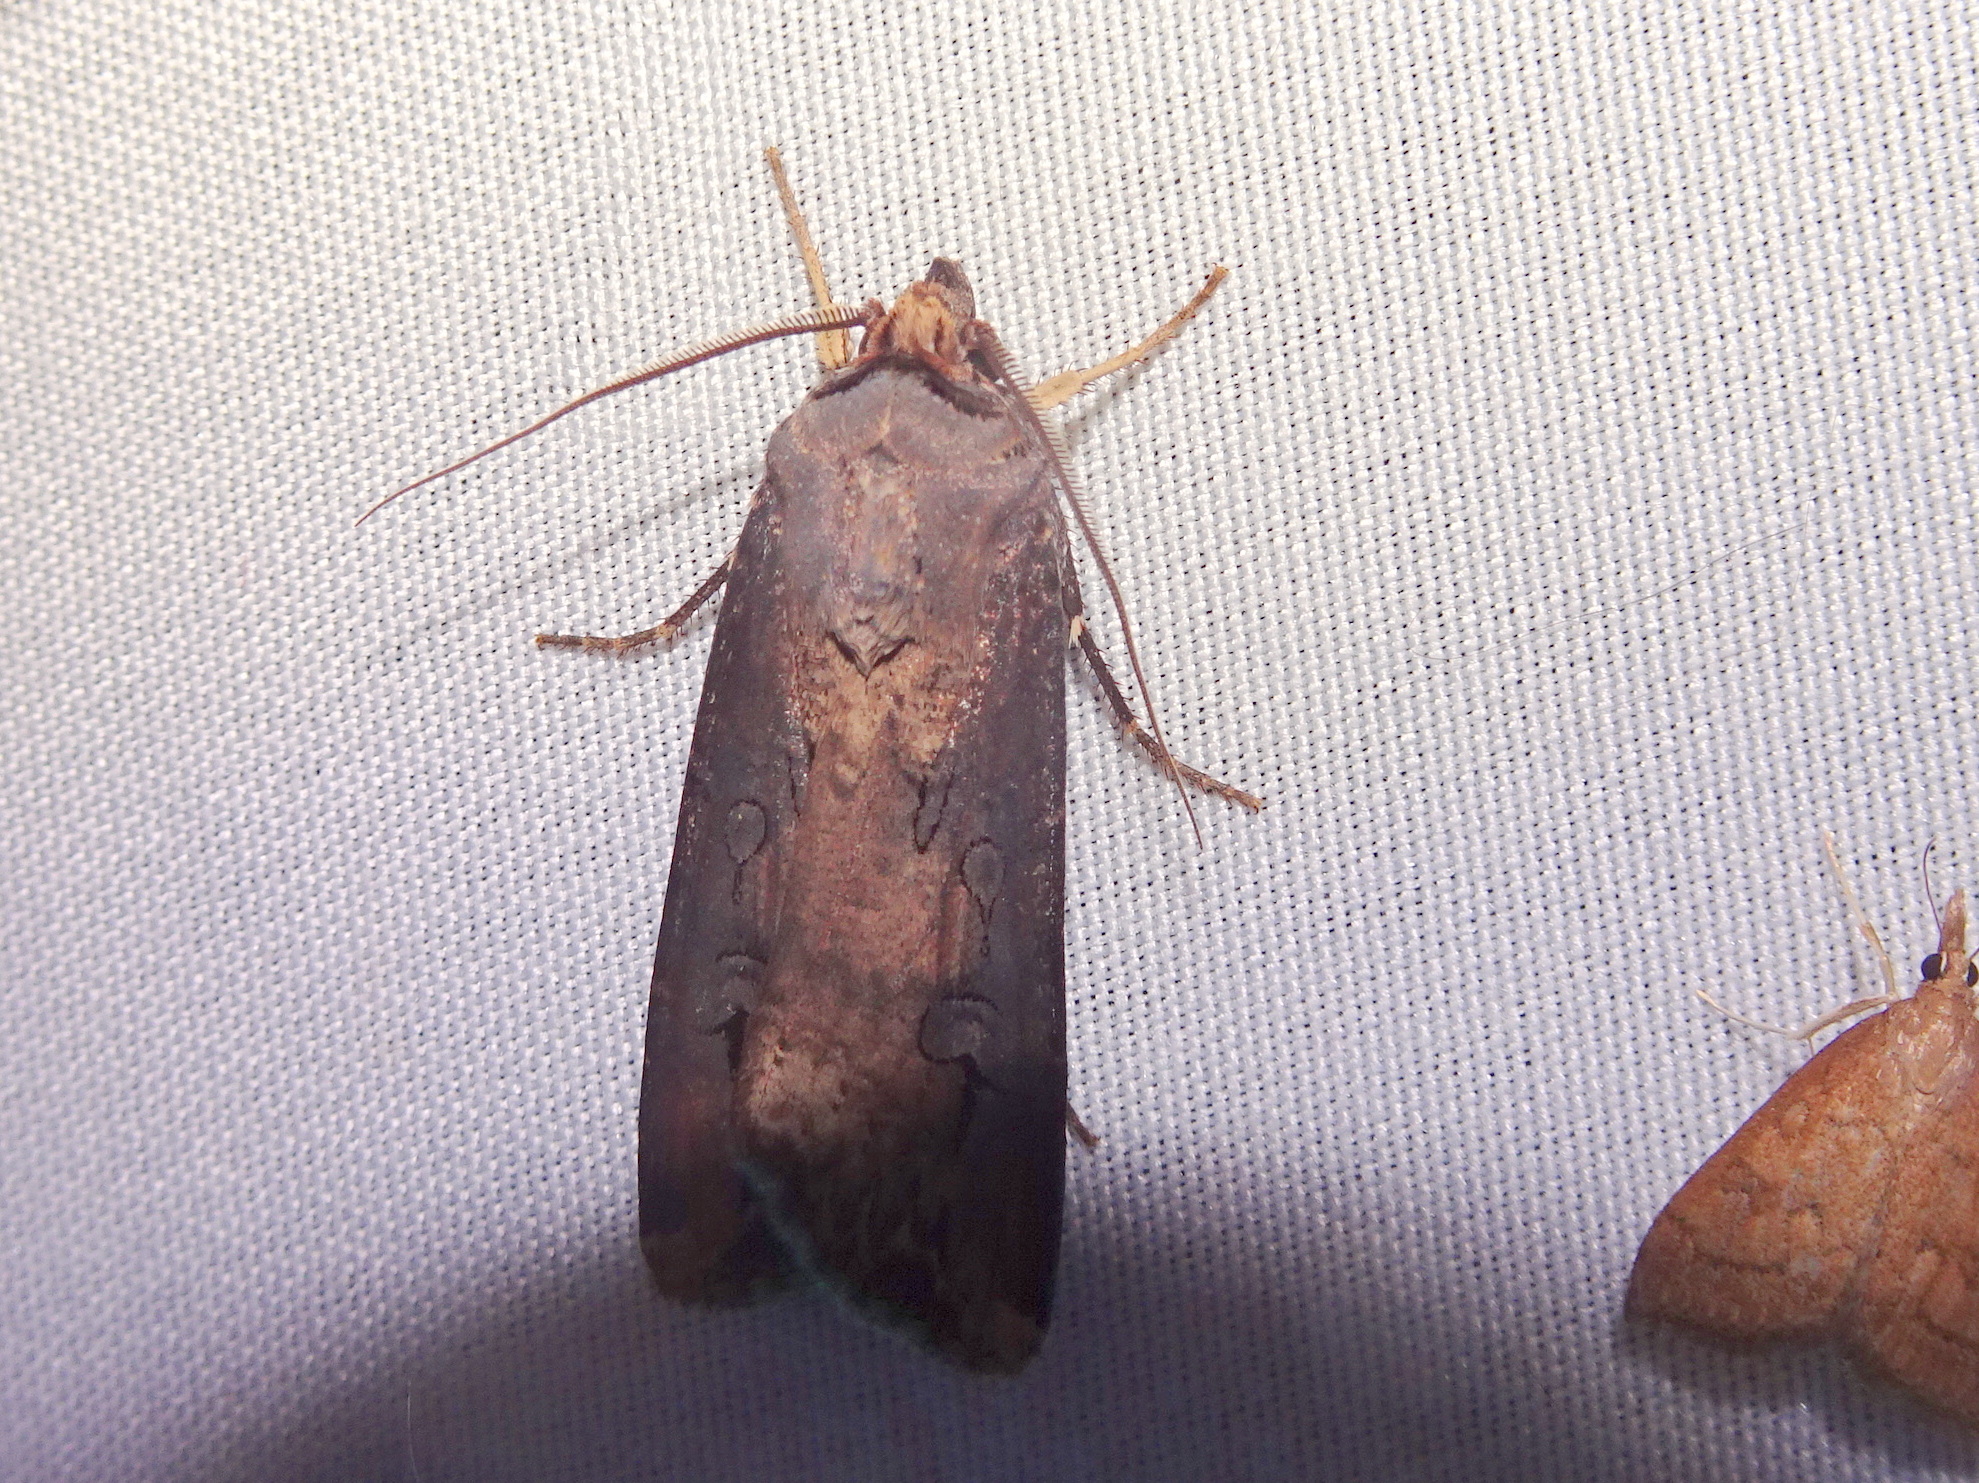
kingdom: Animalia
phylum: Arthropoda
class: Insecta
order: Lepidoptera
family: Noctuidae
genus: Agrotis
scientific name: Agrotis ipsilon
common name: Dark sword-grass
